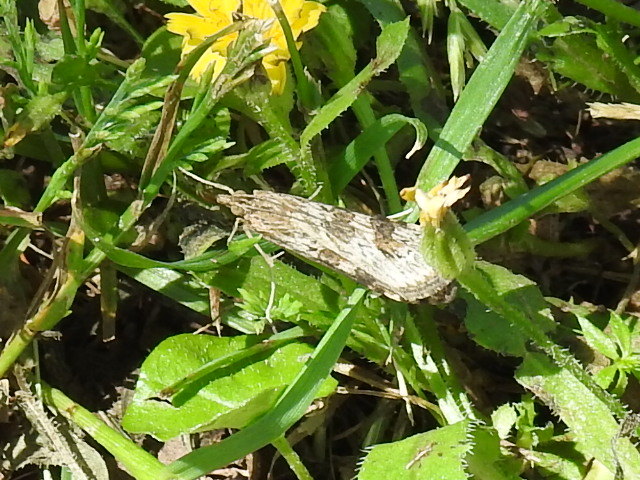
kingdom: Animalia
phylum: Arthropoda
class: Insecta
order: Lepidoptera
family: Crambidae
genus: Nomophila
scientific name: Nomophila nearctica
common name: American rush veneer
